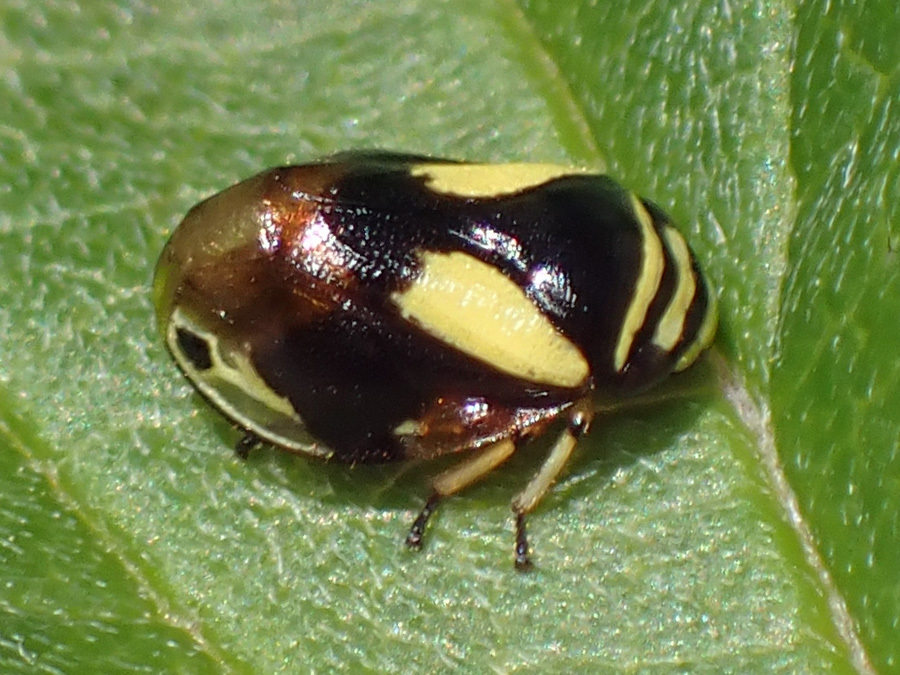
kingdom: Animalia
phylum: Arthropoda
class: Insecta
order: Hemiptera
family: Clastopteridae
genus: Clastoptera
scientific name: Clastoptera proteus
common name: Dogwood spittlebug
